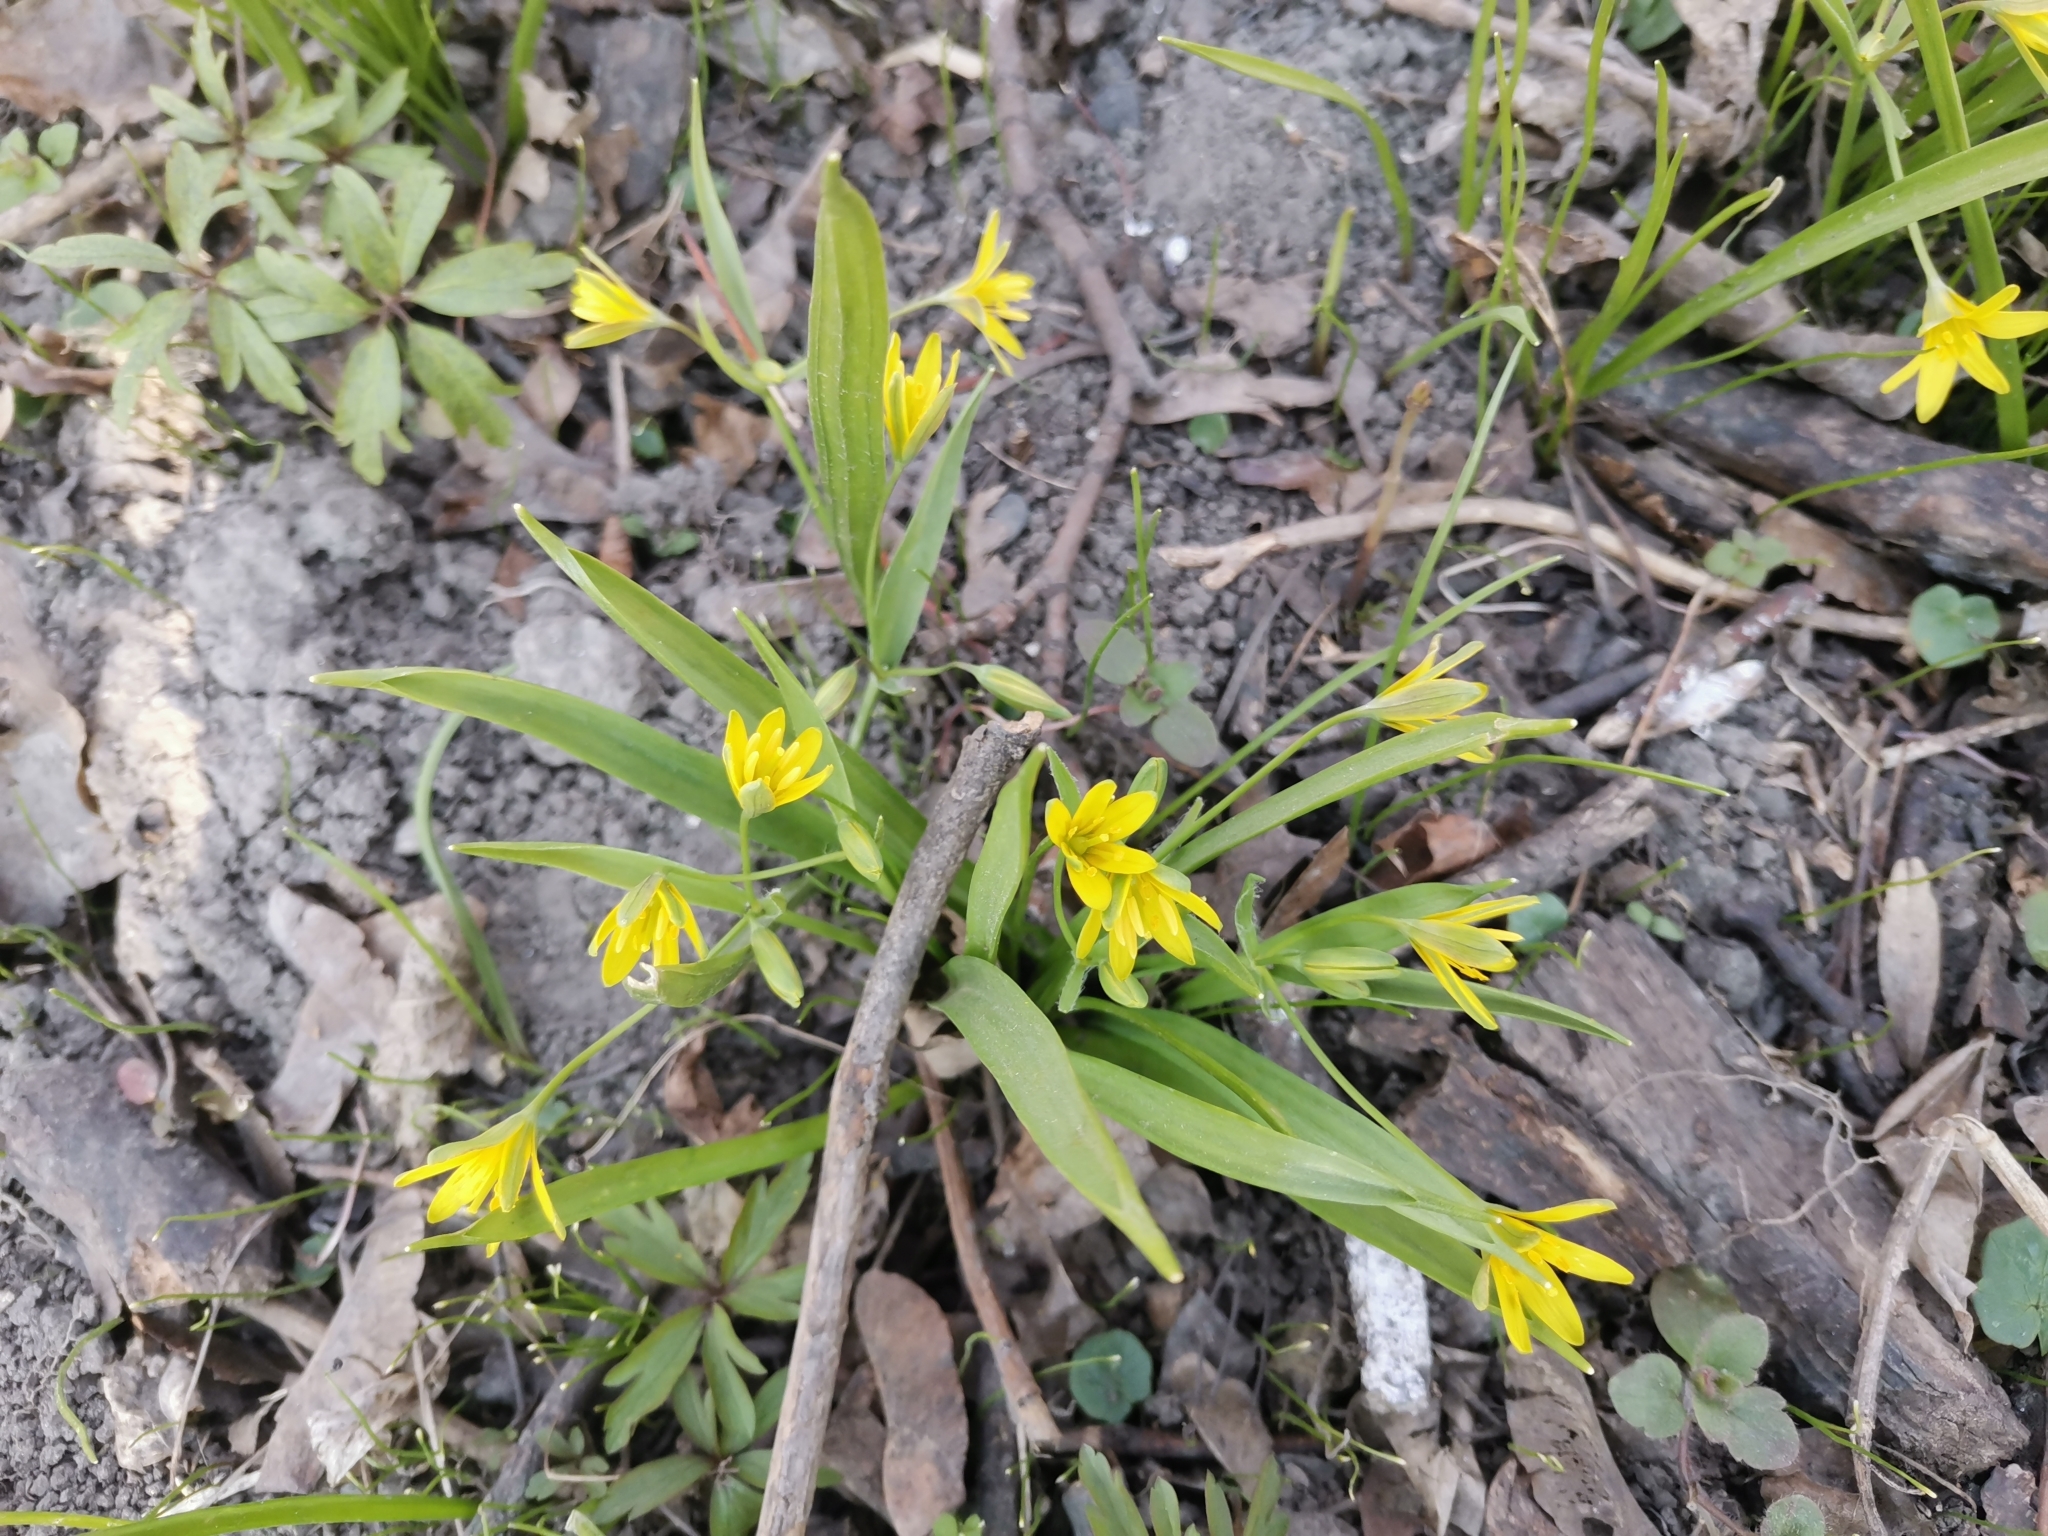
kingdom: Plantae
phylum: Tracheophyta
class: Liliopsida
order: Liliales
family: Liliaceae
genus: Gagea
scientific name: Gagea lutea
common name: Yellow star-of-bethlehem
